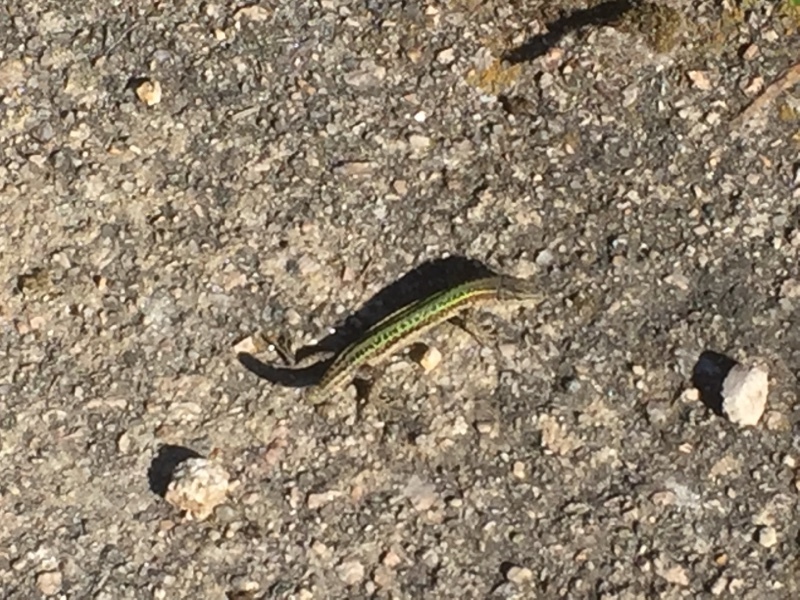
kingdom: Animalia
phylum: Chordata
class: Squamata
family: Lacertidae
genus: Podarcis
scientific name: Podarcis bocagei
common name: Bocage's wall lizard
